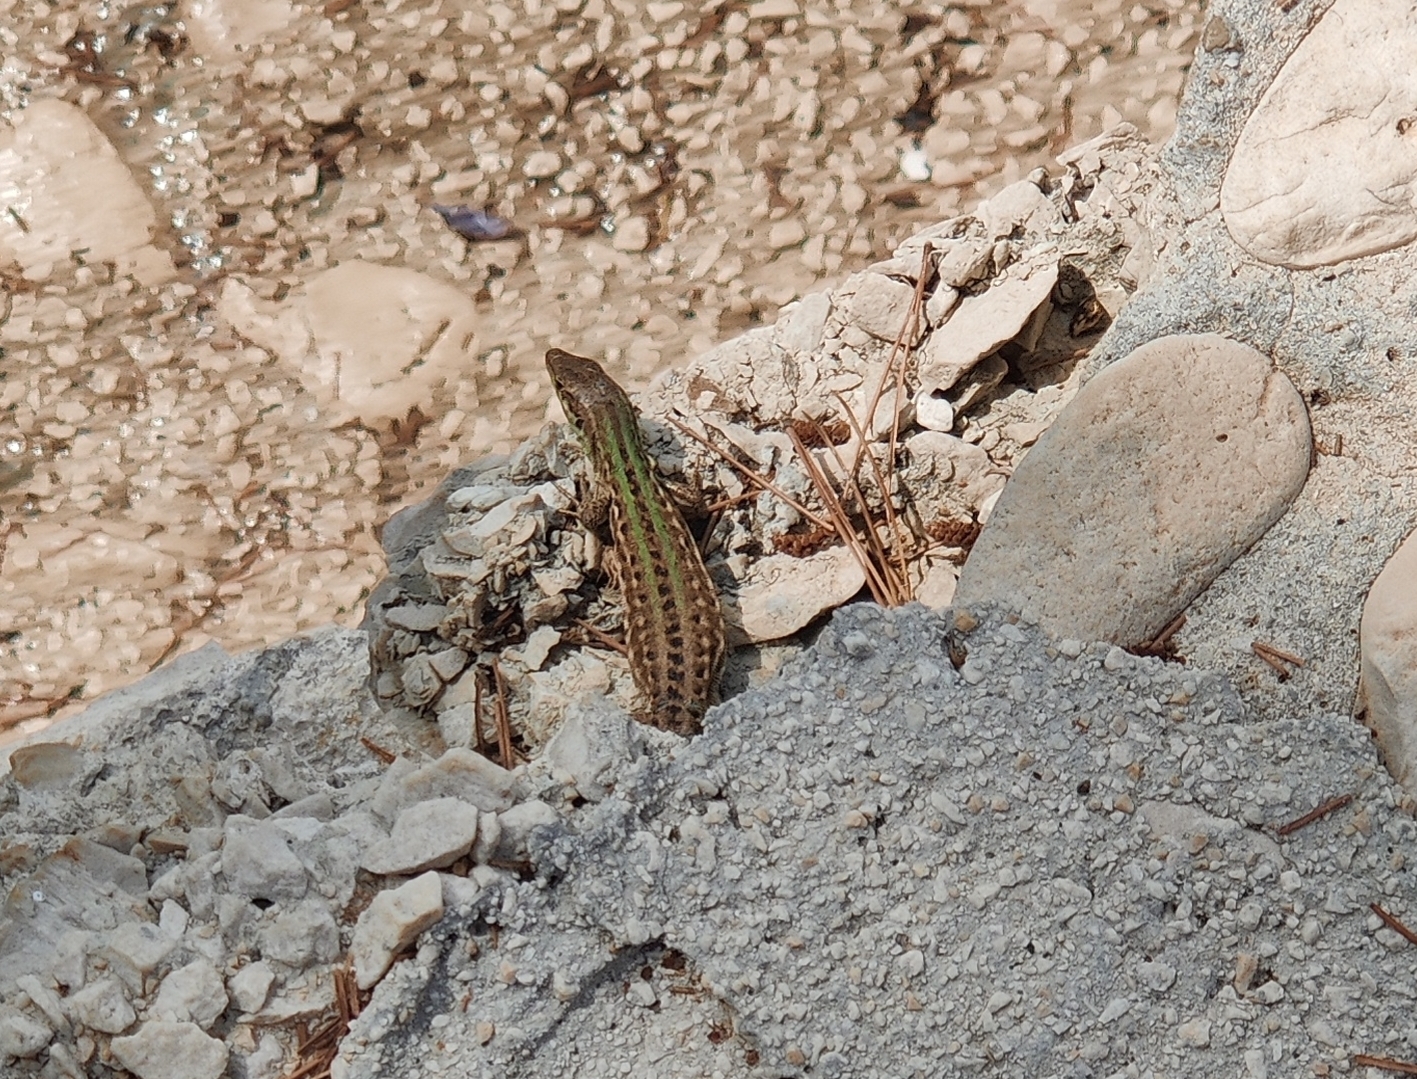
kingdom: Animalia
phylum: Chordata
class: Squamata
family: Lacertidae
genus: Podarcis
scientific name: Podarcis siculus
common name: Italian wall lizard
